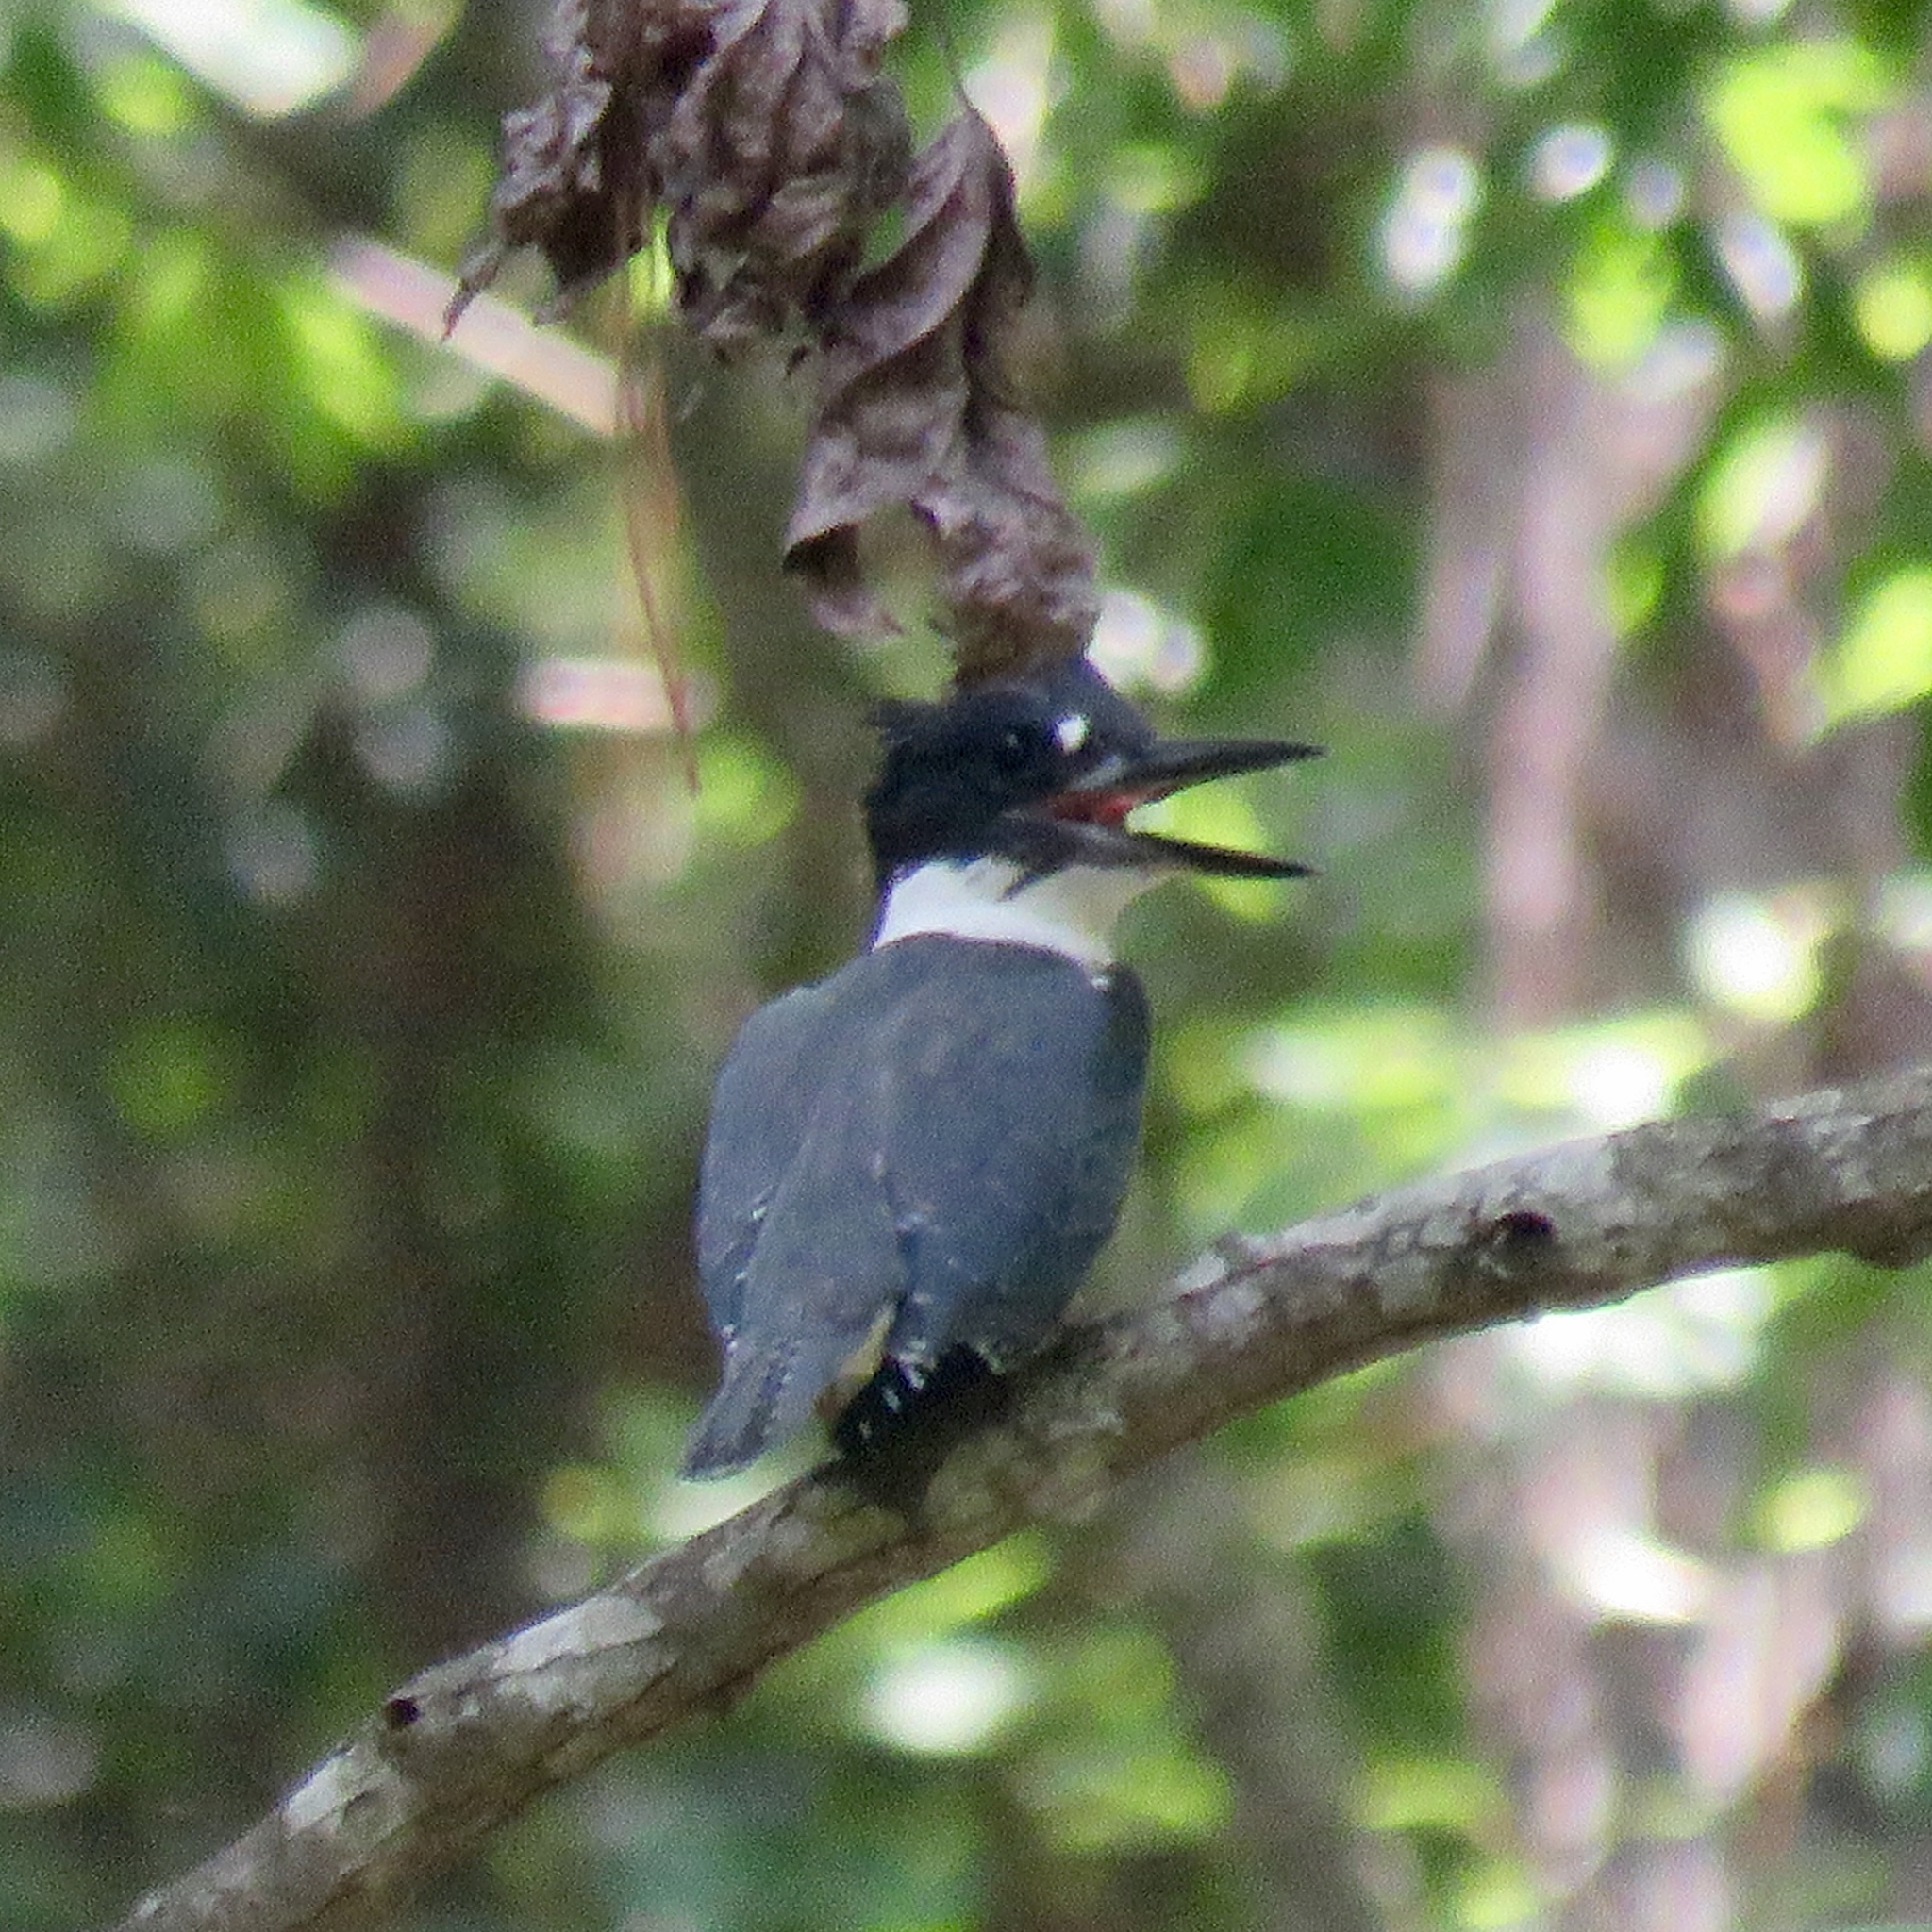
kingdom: Animalia
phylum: Chordata
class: Aves
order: Coraciiformes
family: Alcedinidae
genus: Megaceryle
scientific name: Megaceryle alcyon
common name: Belted kingfisher
